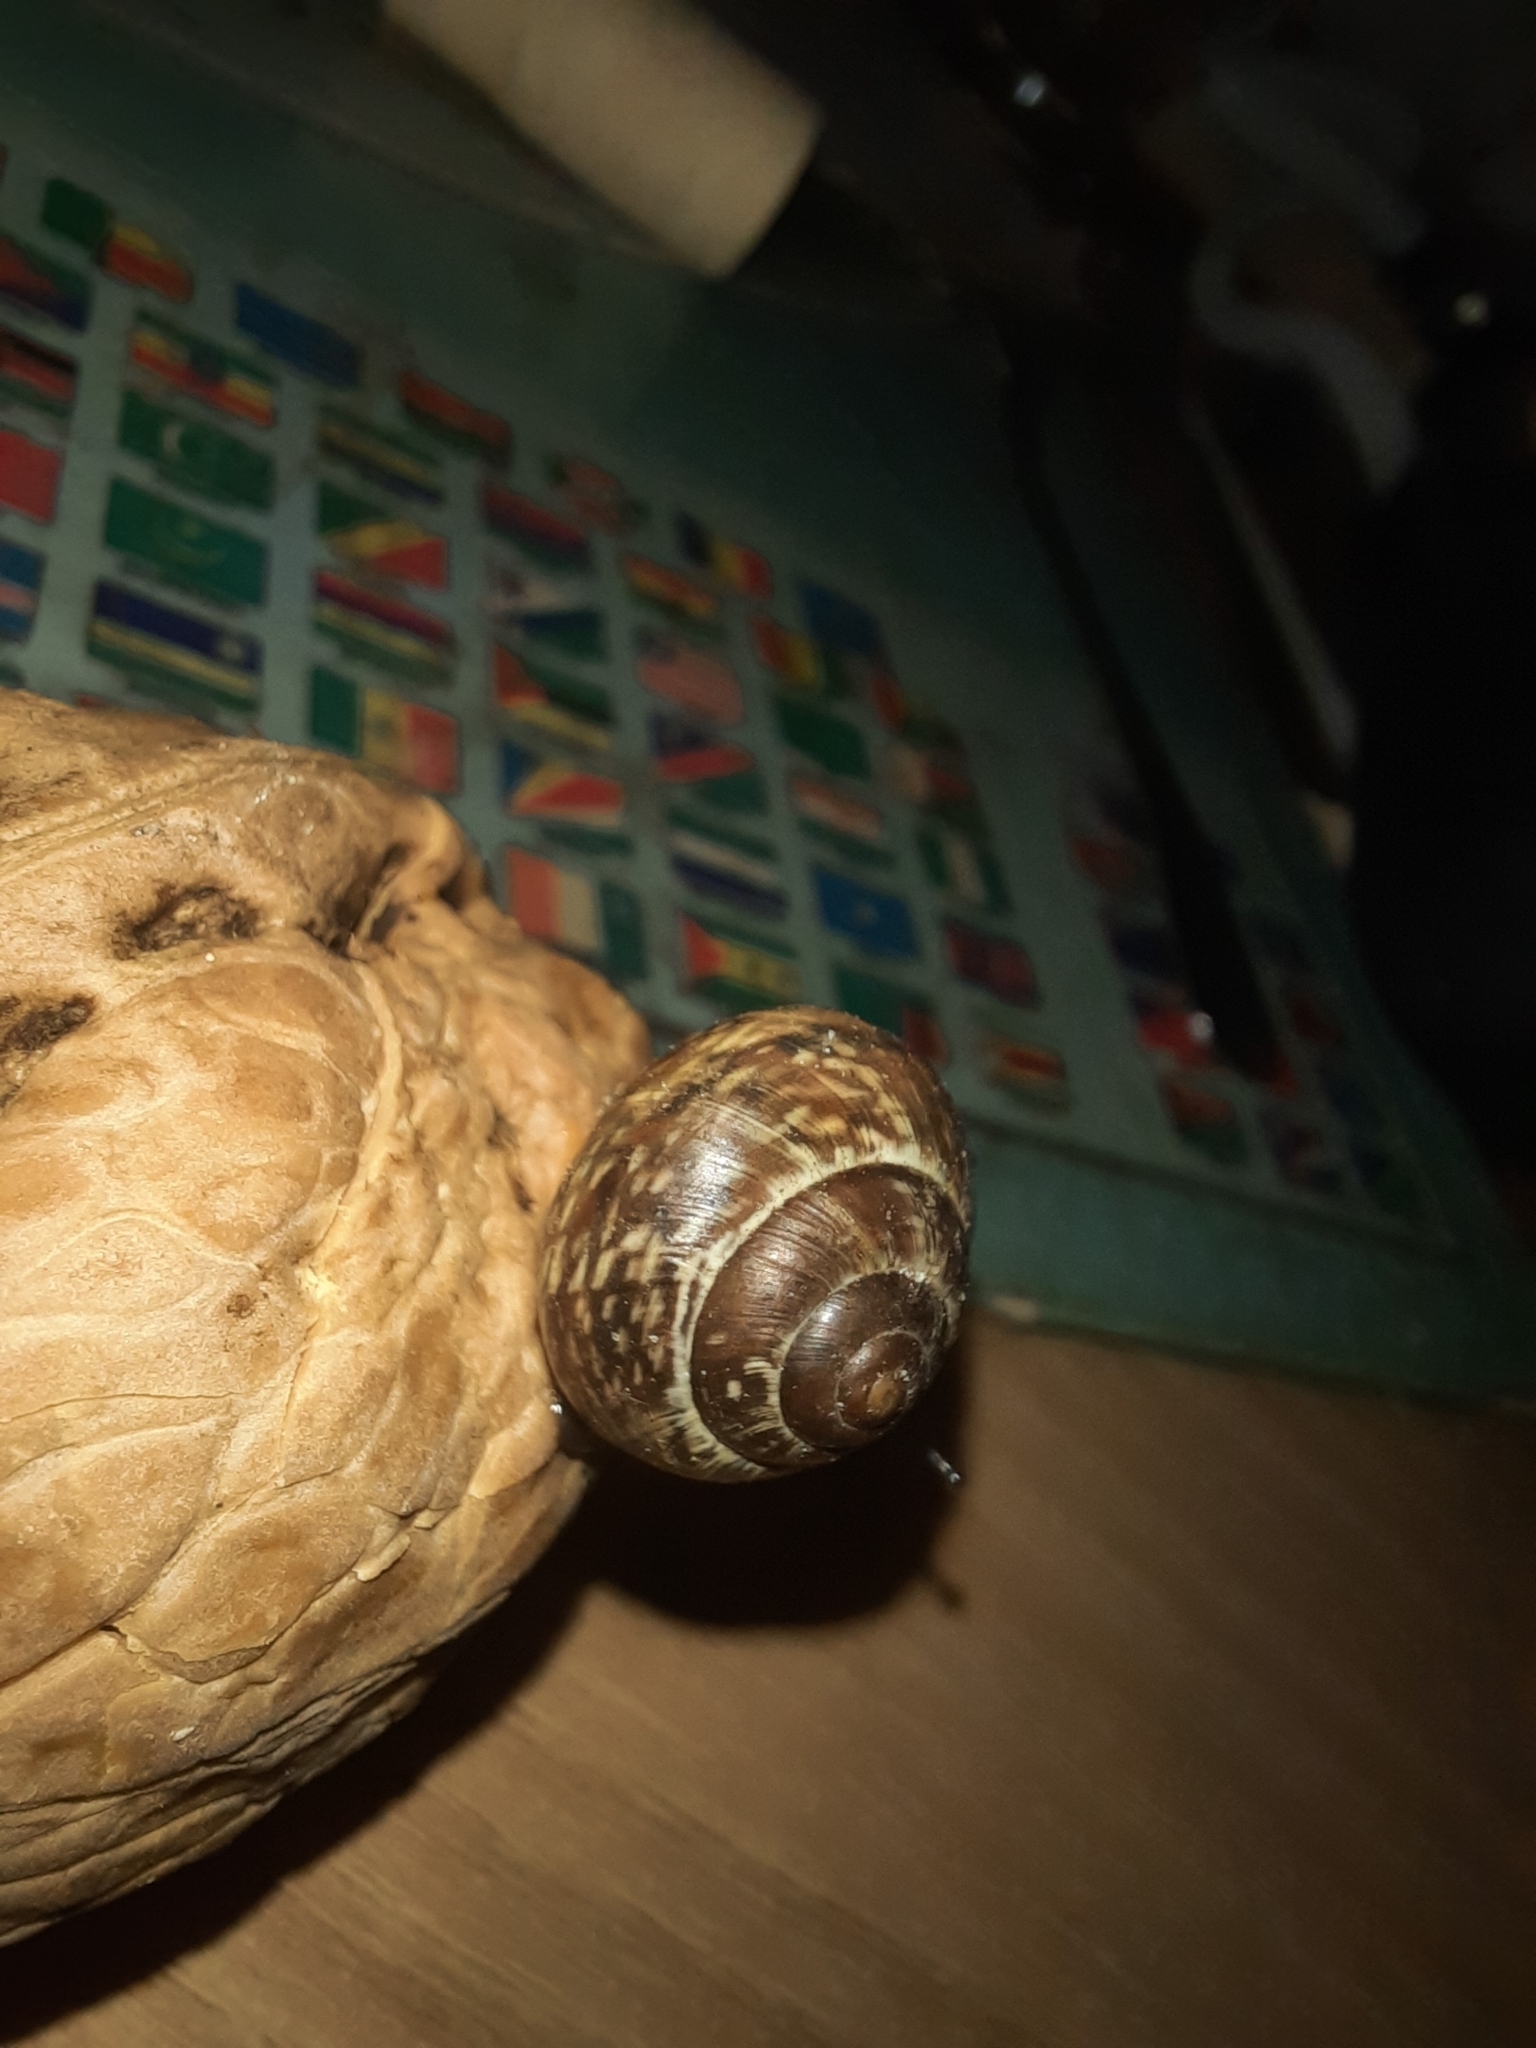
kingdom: Animalia
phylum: Mollusca
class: Gastropoda
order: Stylommatophora
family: Helicidae
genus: Arianta
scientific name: Arianta arbustorum
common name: Copse snail
